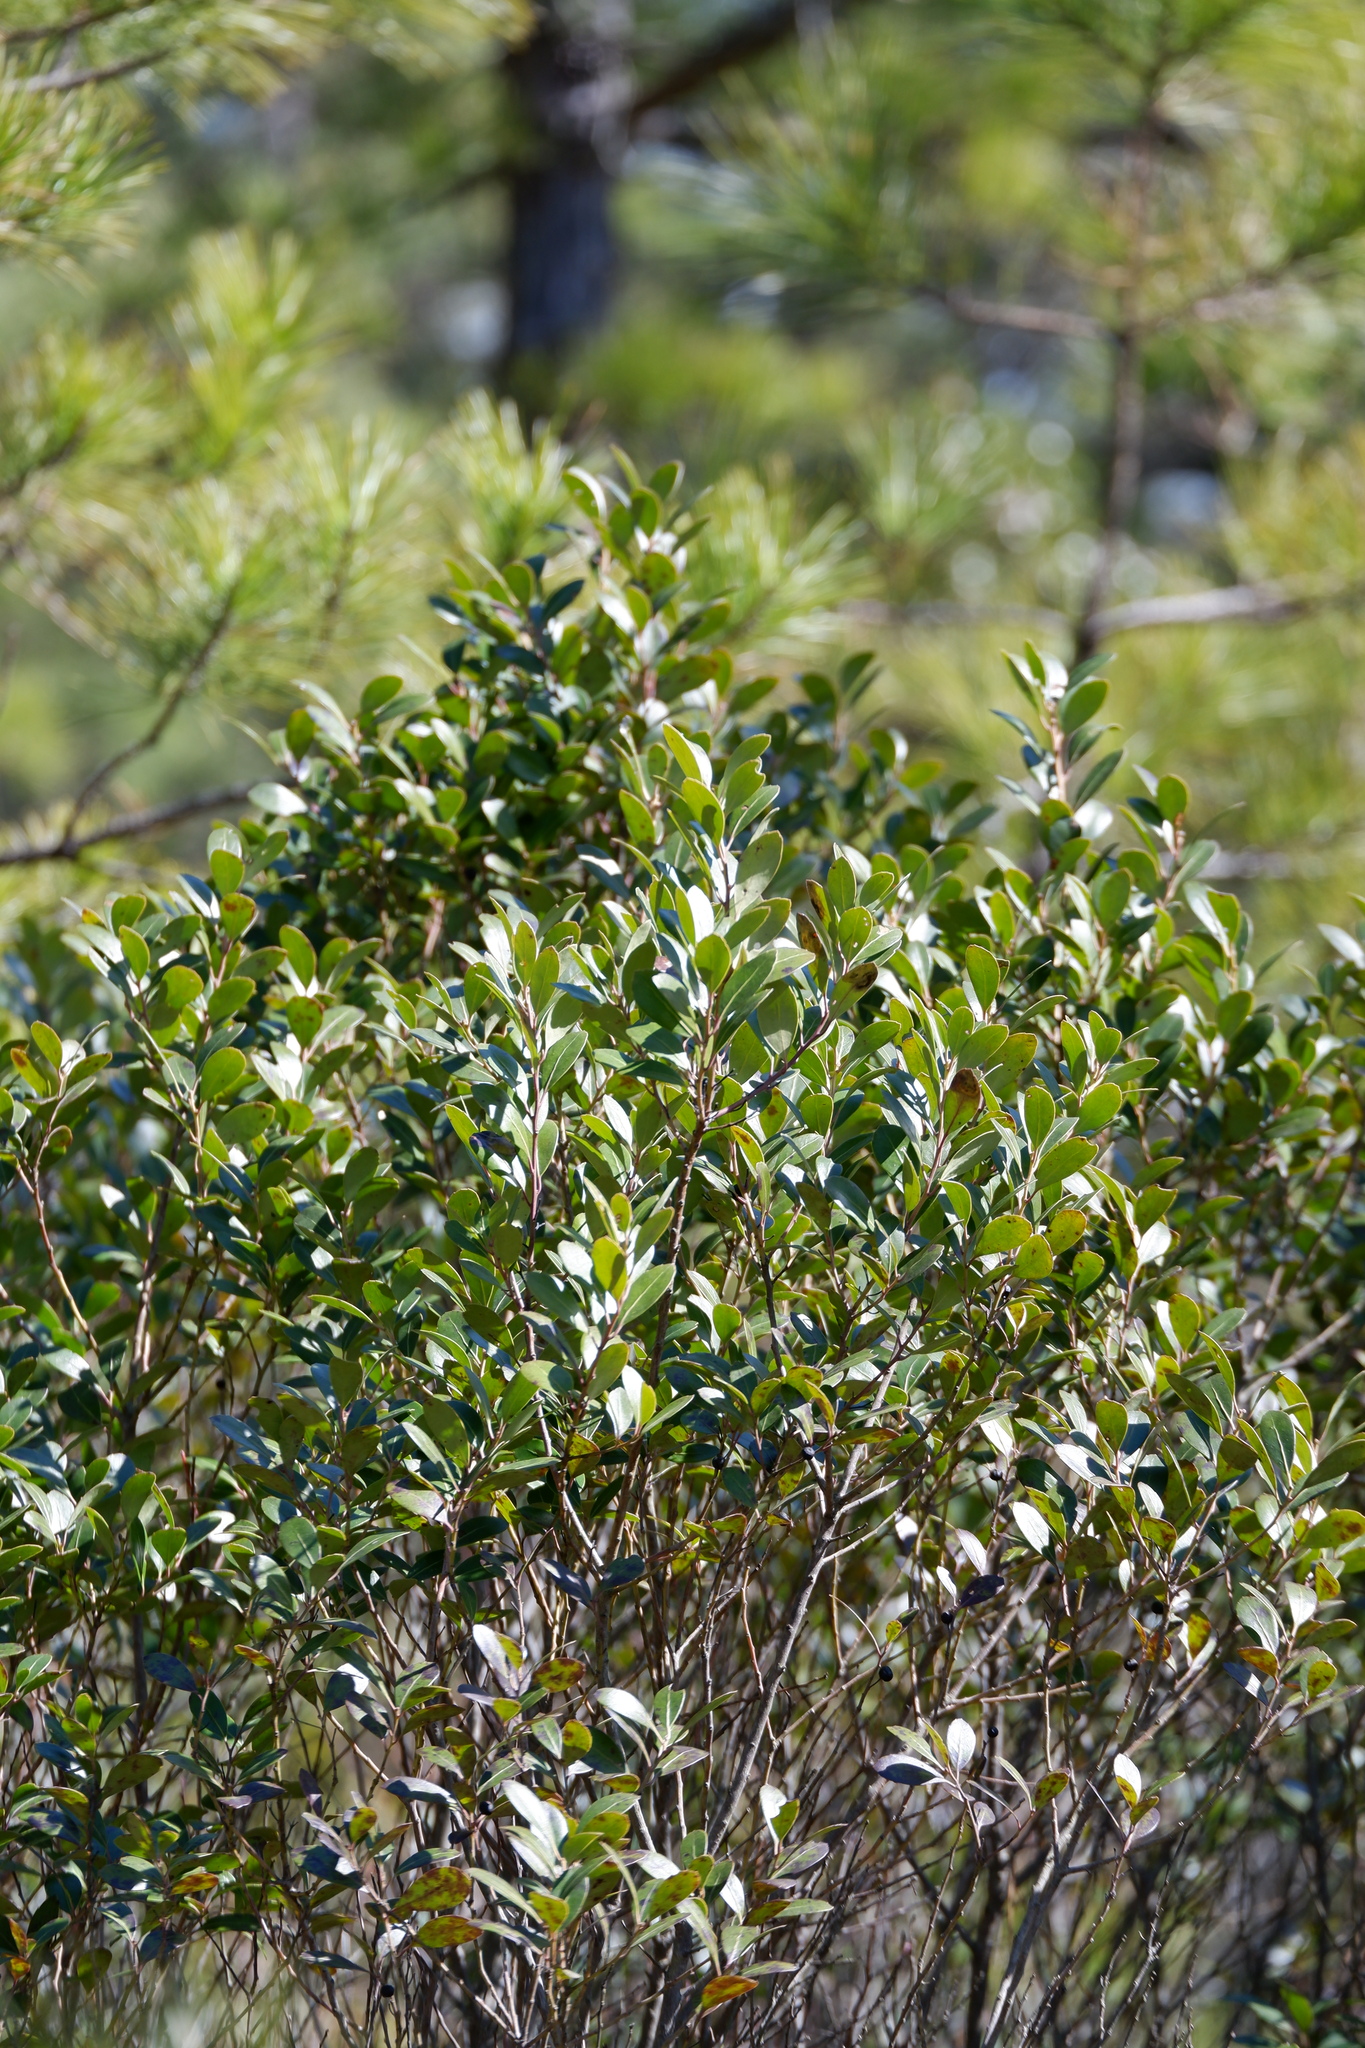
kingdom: Plantae
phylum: Tracheophyta
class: Magnoliopsida
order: Aquifoliales
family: Aquifoliaceae
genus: Ilex
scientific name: Ilex glabra
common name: Bitter gallberry
